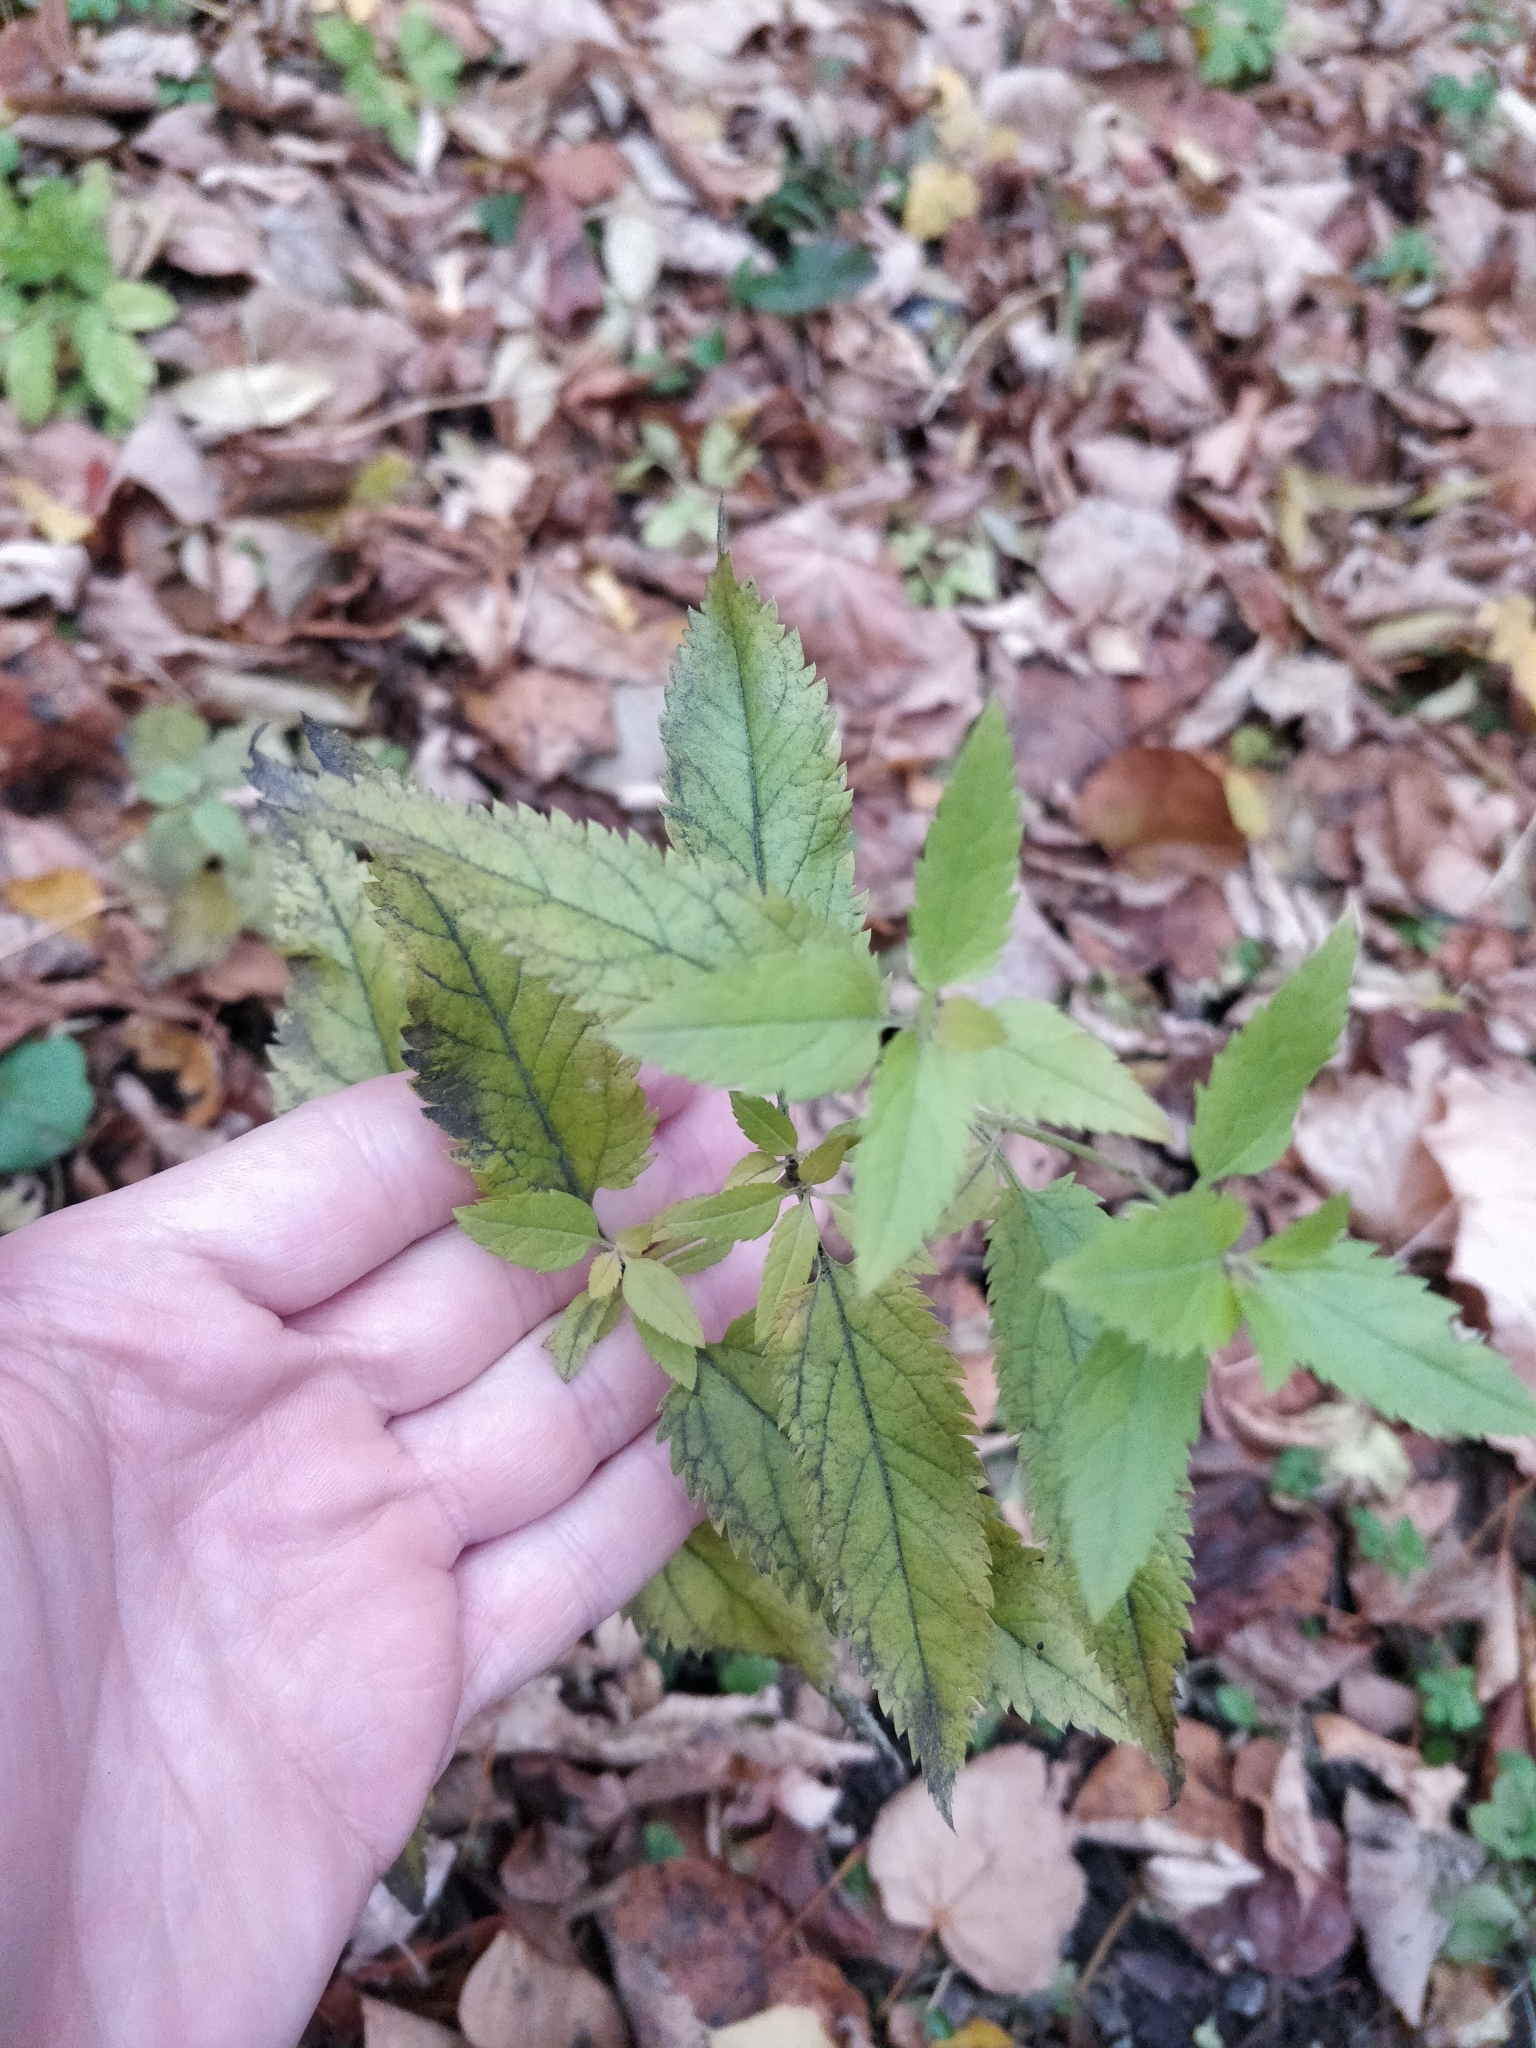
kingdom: Plantae
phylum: Tracheophyta
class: Magnoliopsida
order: Lamiales
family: Plantaginaceae
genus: Veronica
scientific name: Veronica longifolia
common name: Garden speedwell
